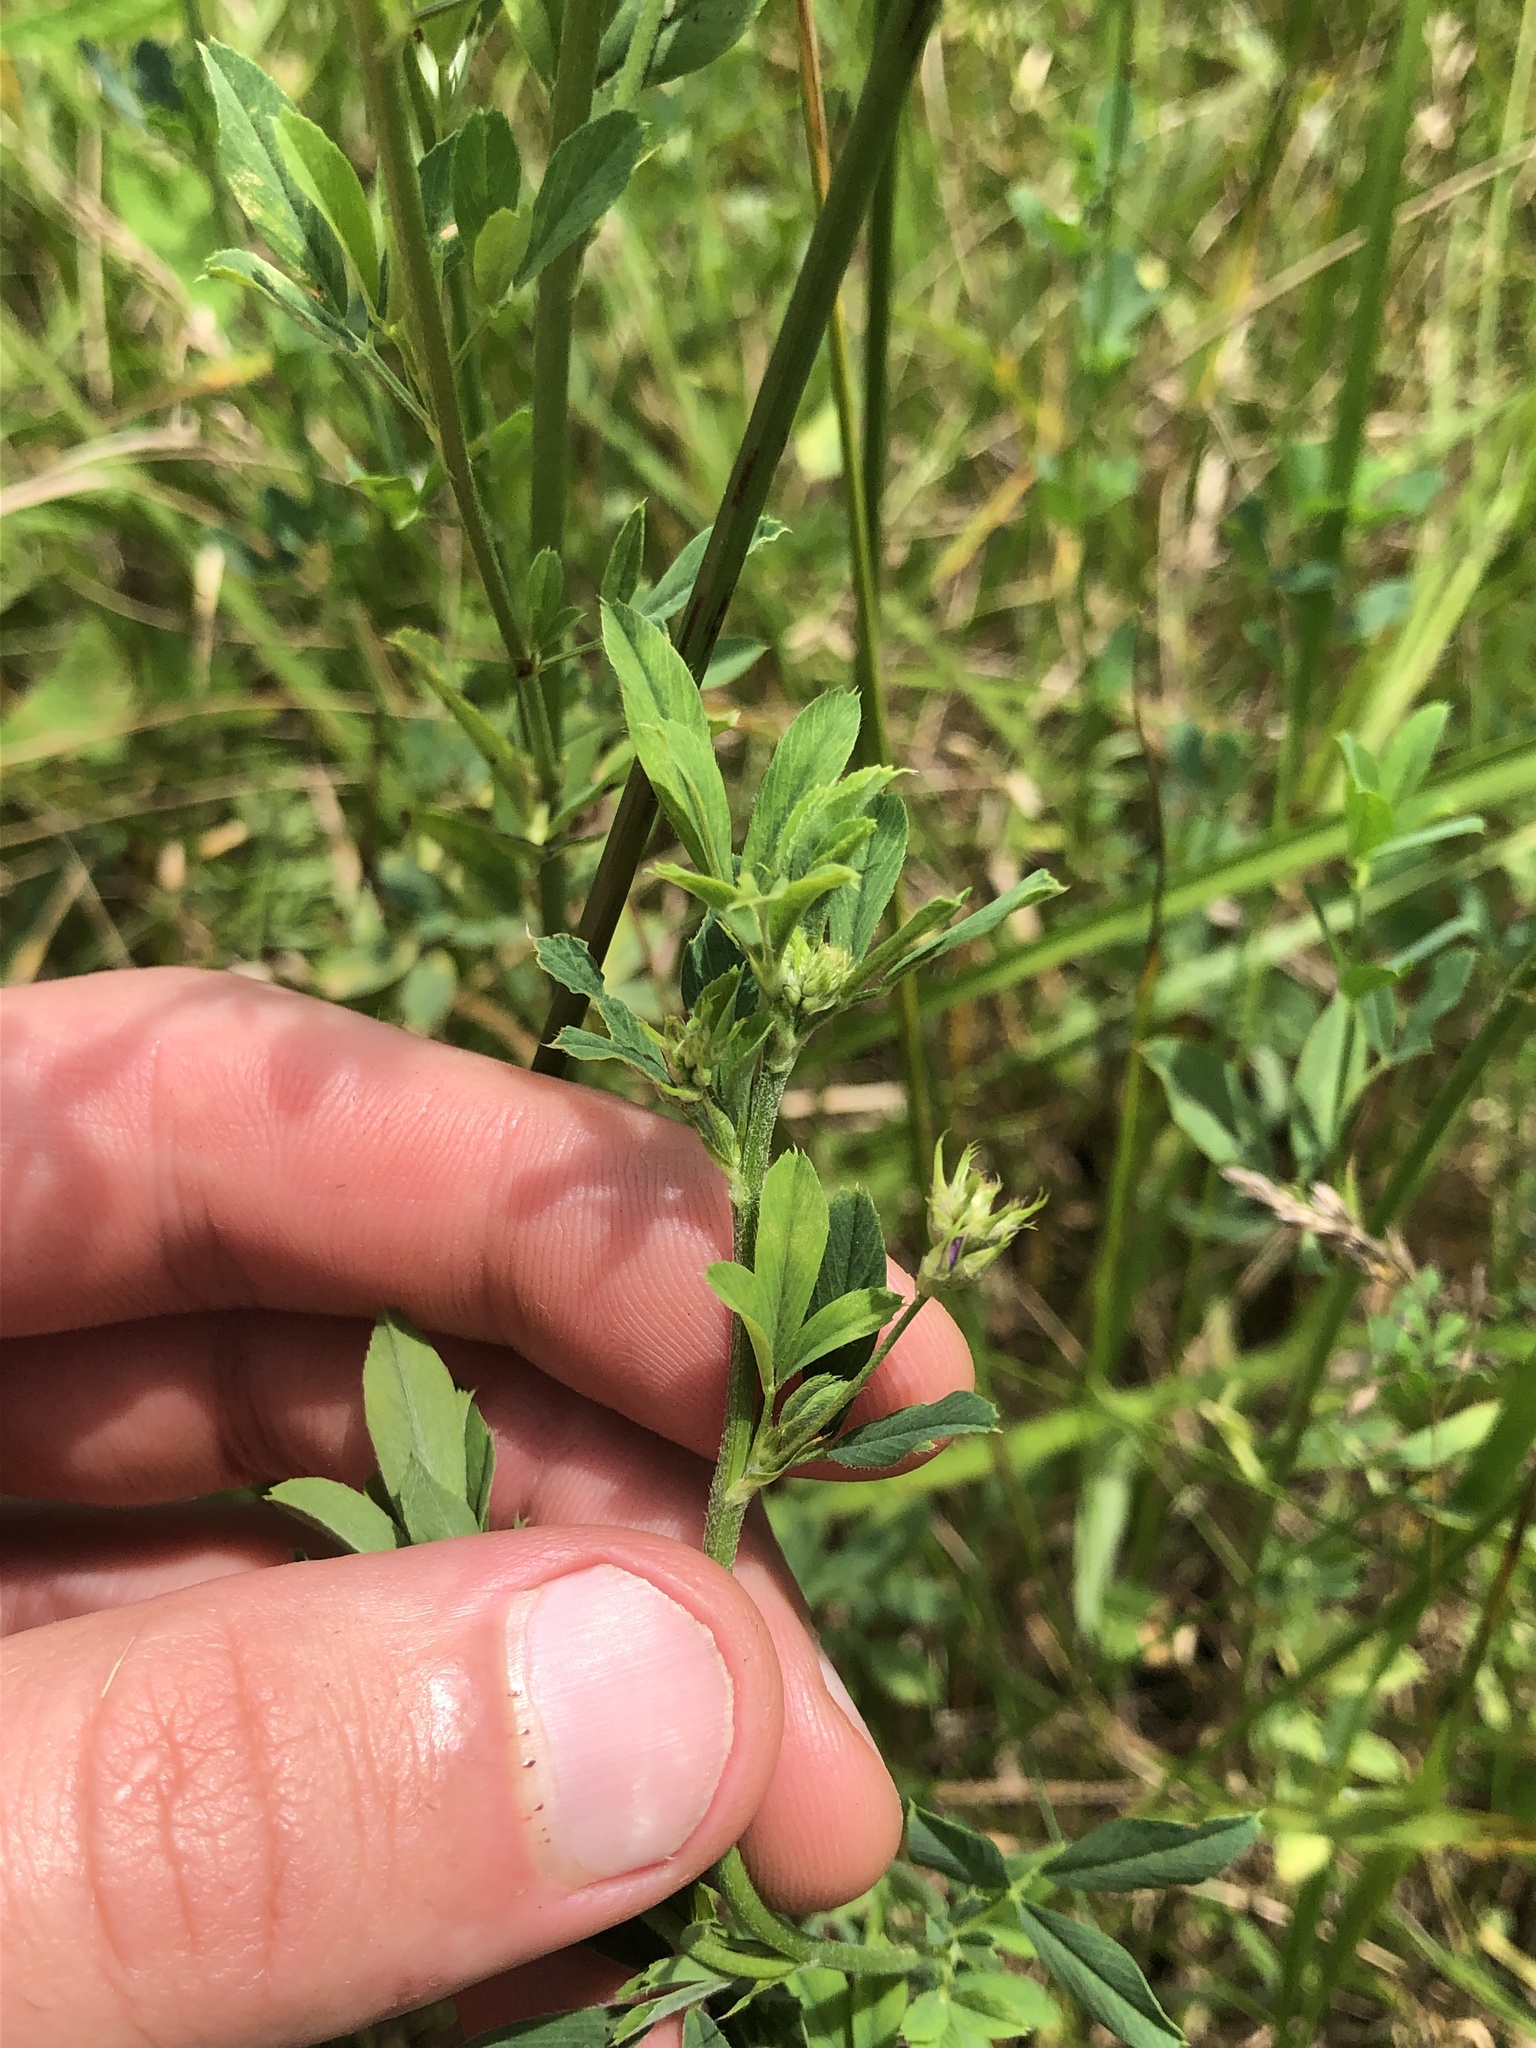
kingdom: Plantae
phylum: Tracheophyta
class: Magnoliopsida
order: Fabales
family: Fabaceae
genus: Medicago
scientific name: Medicago sativa
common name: Alfalfa
